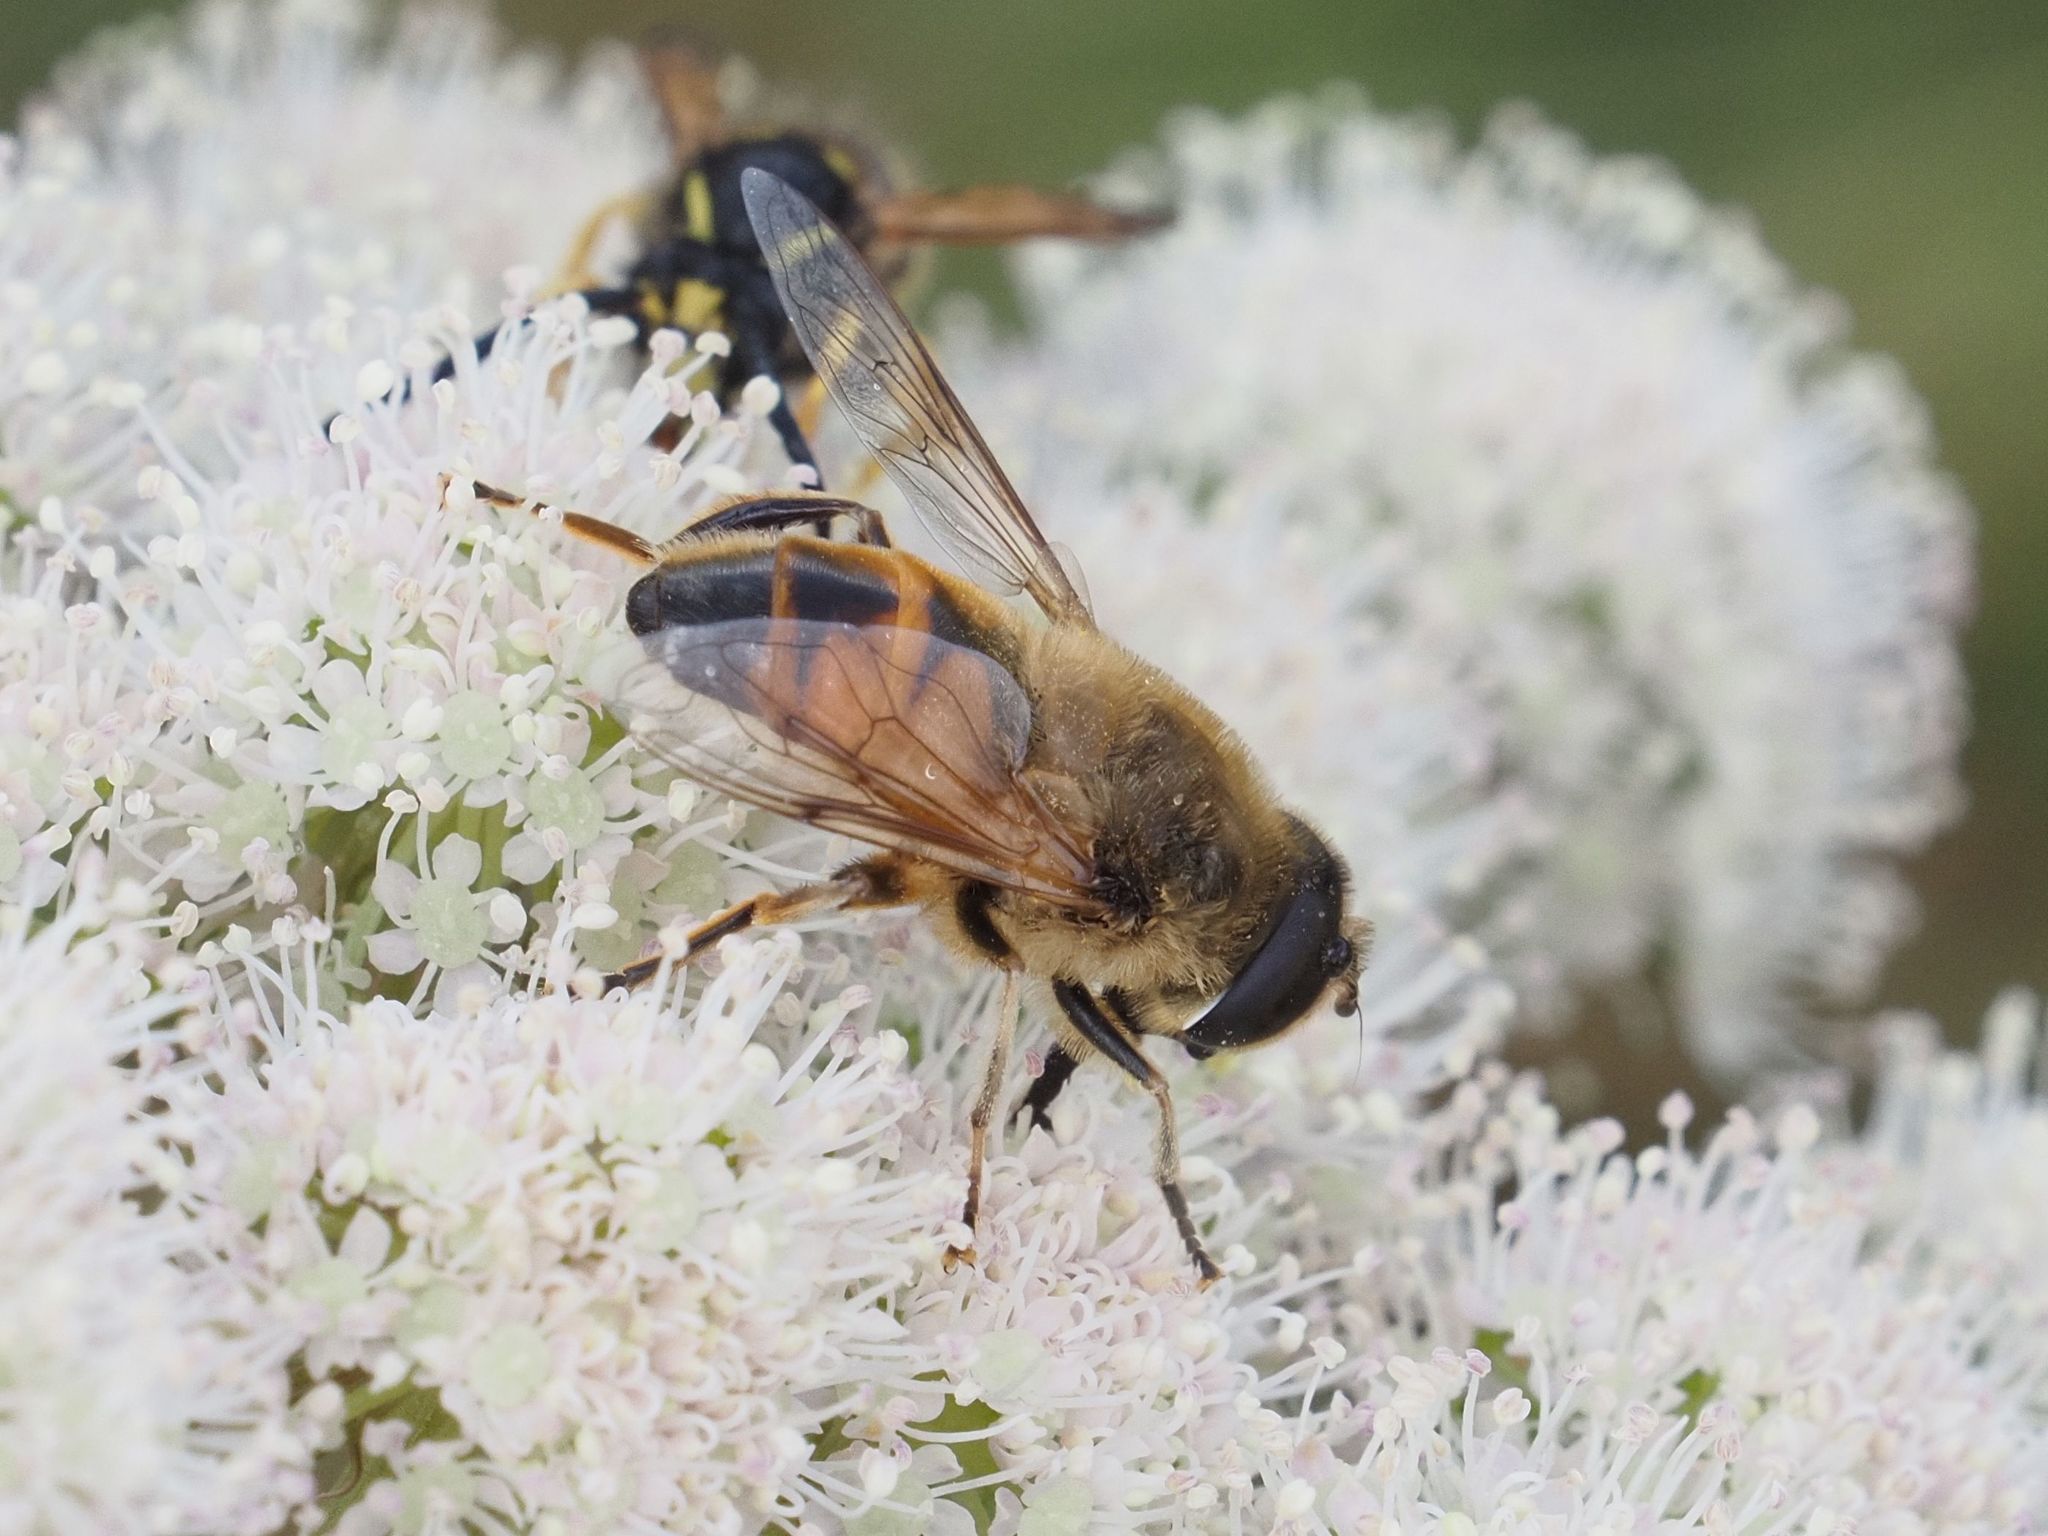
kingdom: Animalia
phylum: Arthropoda
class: Insecta
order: Diptera
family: Syrphidae
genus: Eristalis
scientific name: Eristalis tenax
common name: Drone fly
